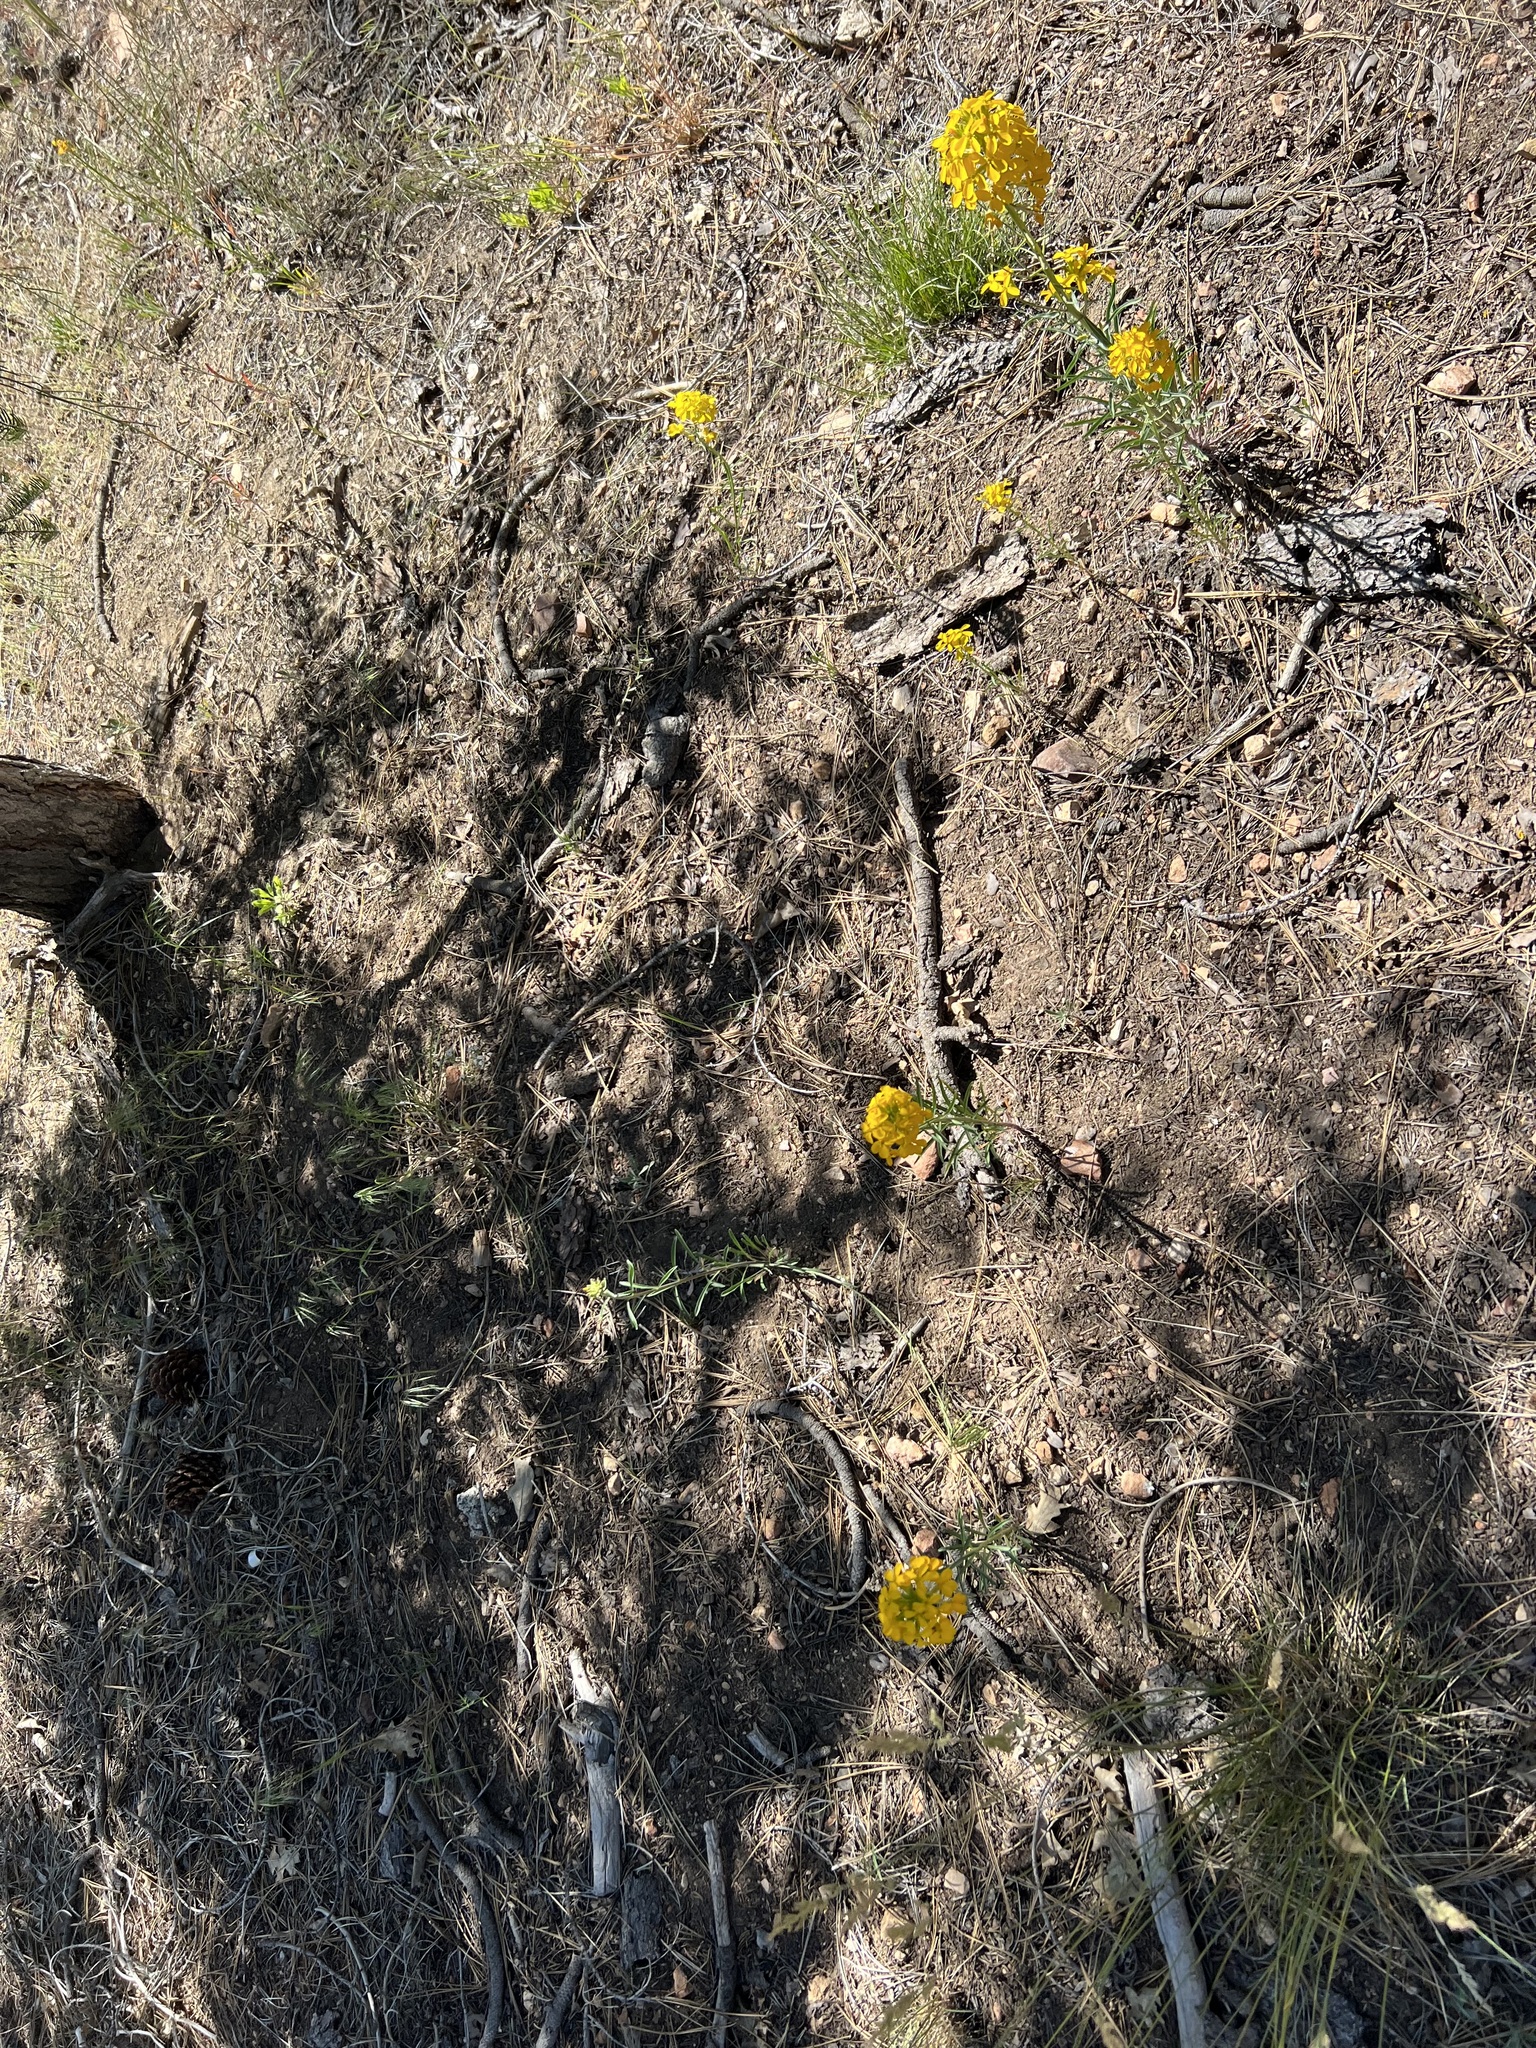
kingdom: Plantae
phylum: Tracheophyta
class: Magnoliopsida
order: Brassicales
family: Brassicaceae
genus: Erysimum
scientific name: Erysimum capitatum
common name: Western wallflower
